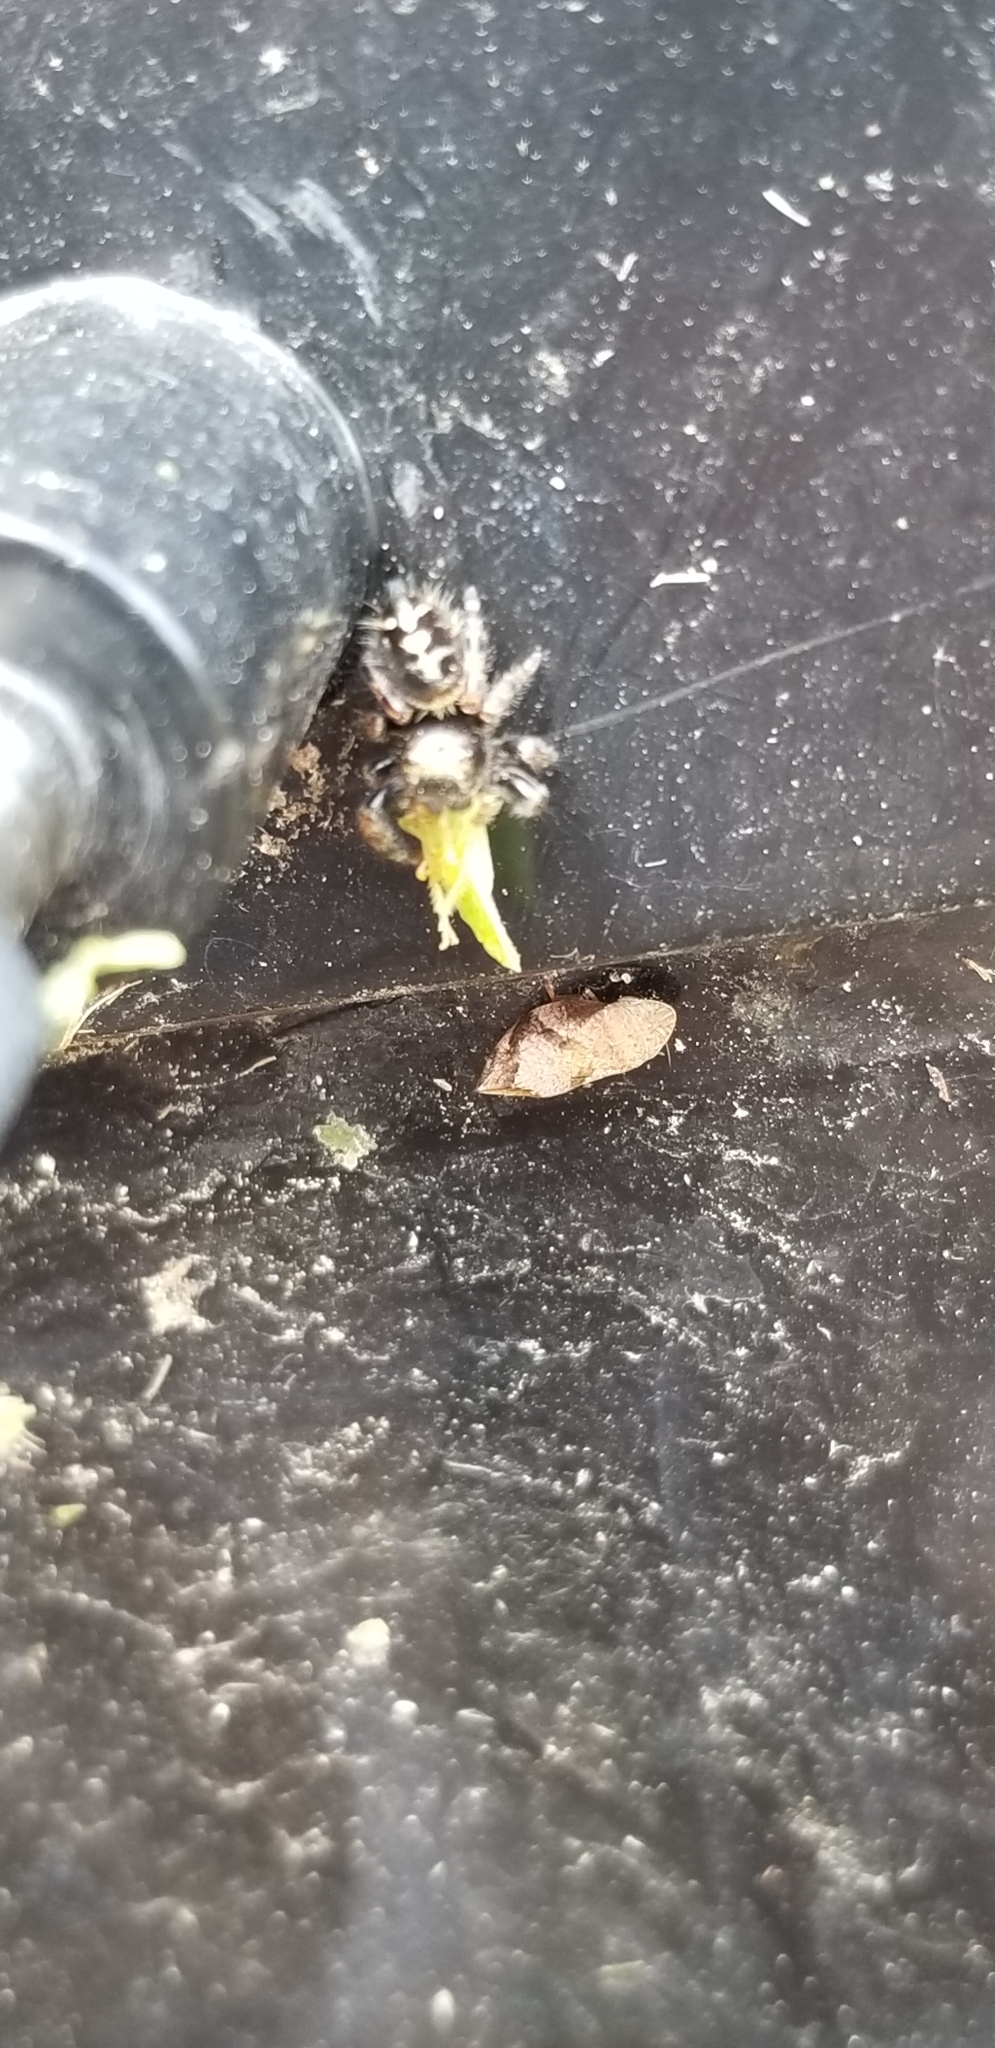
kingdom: Animalia
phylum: Arthropoda
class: Arachnida
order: Araneae
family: Salticidae
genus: Phidippus
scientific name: Phidippus audax
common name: Bold jumper
